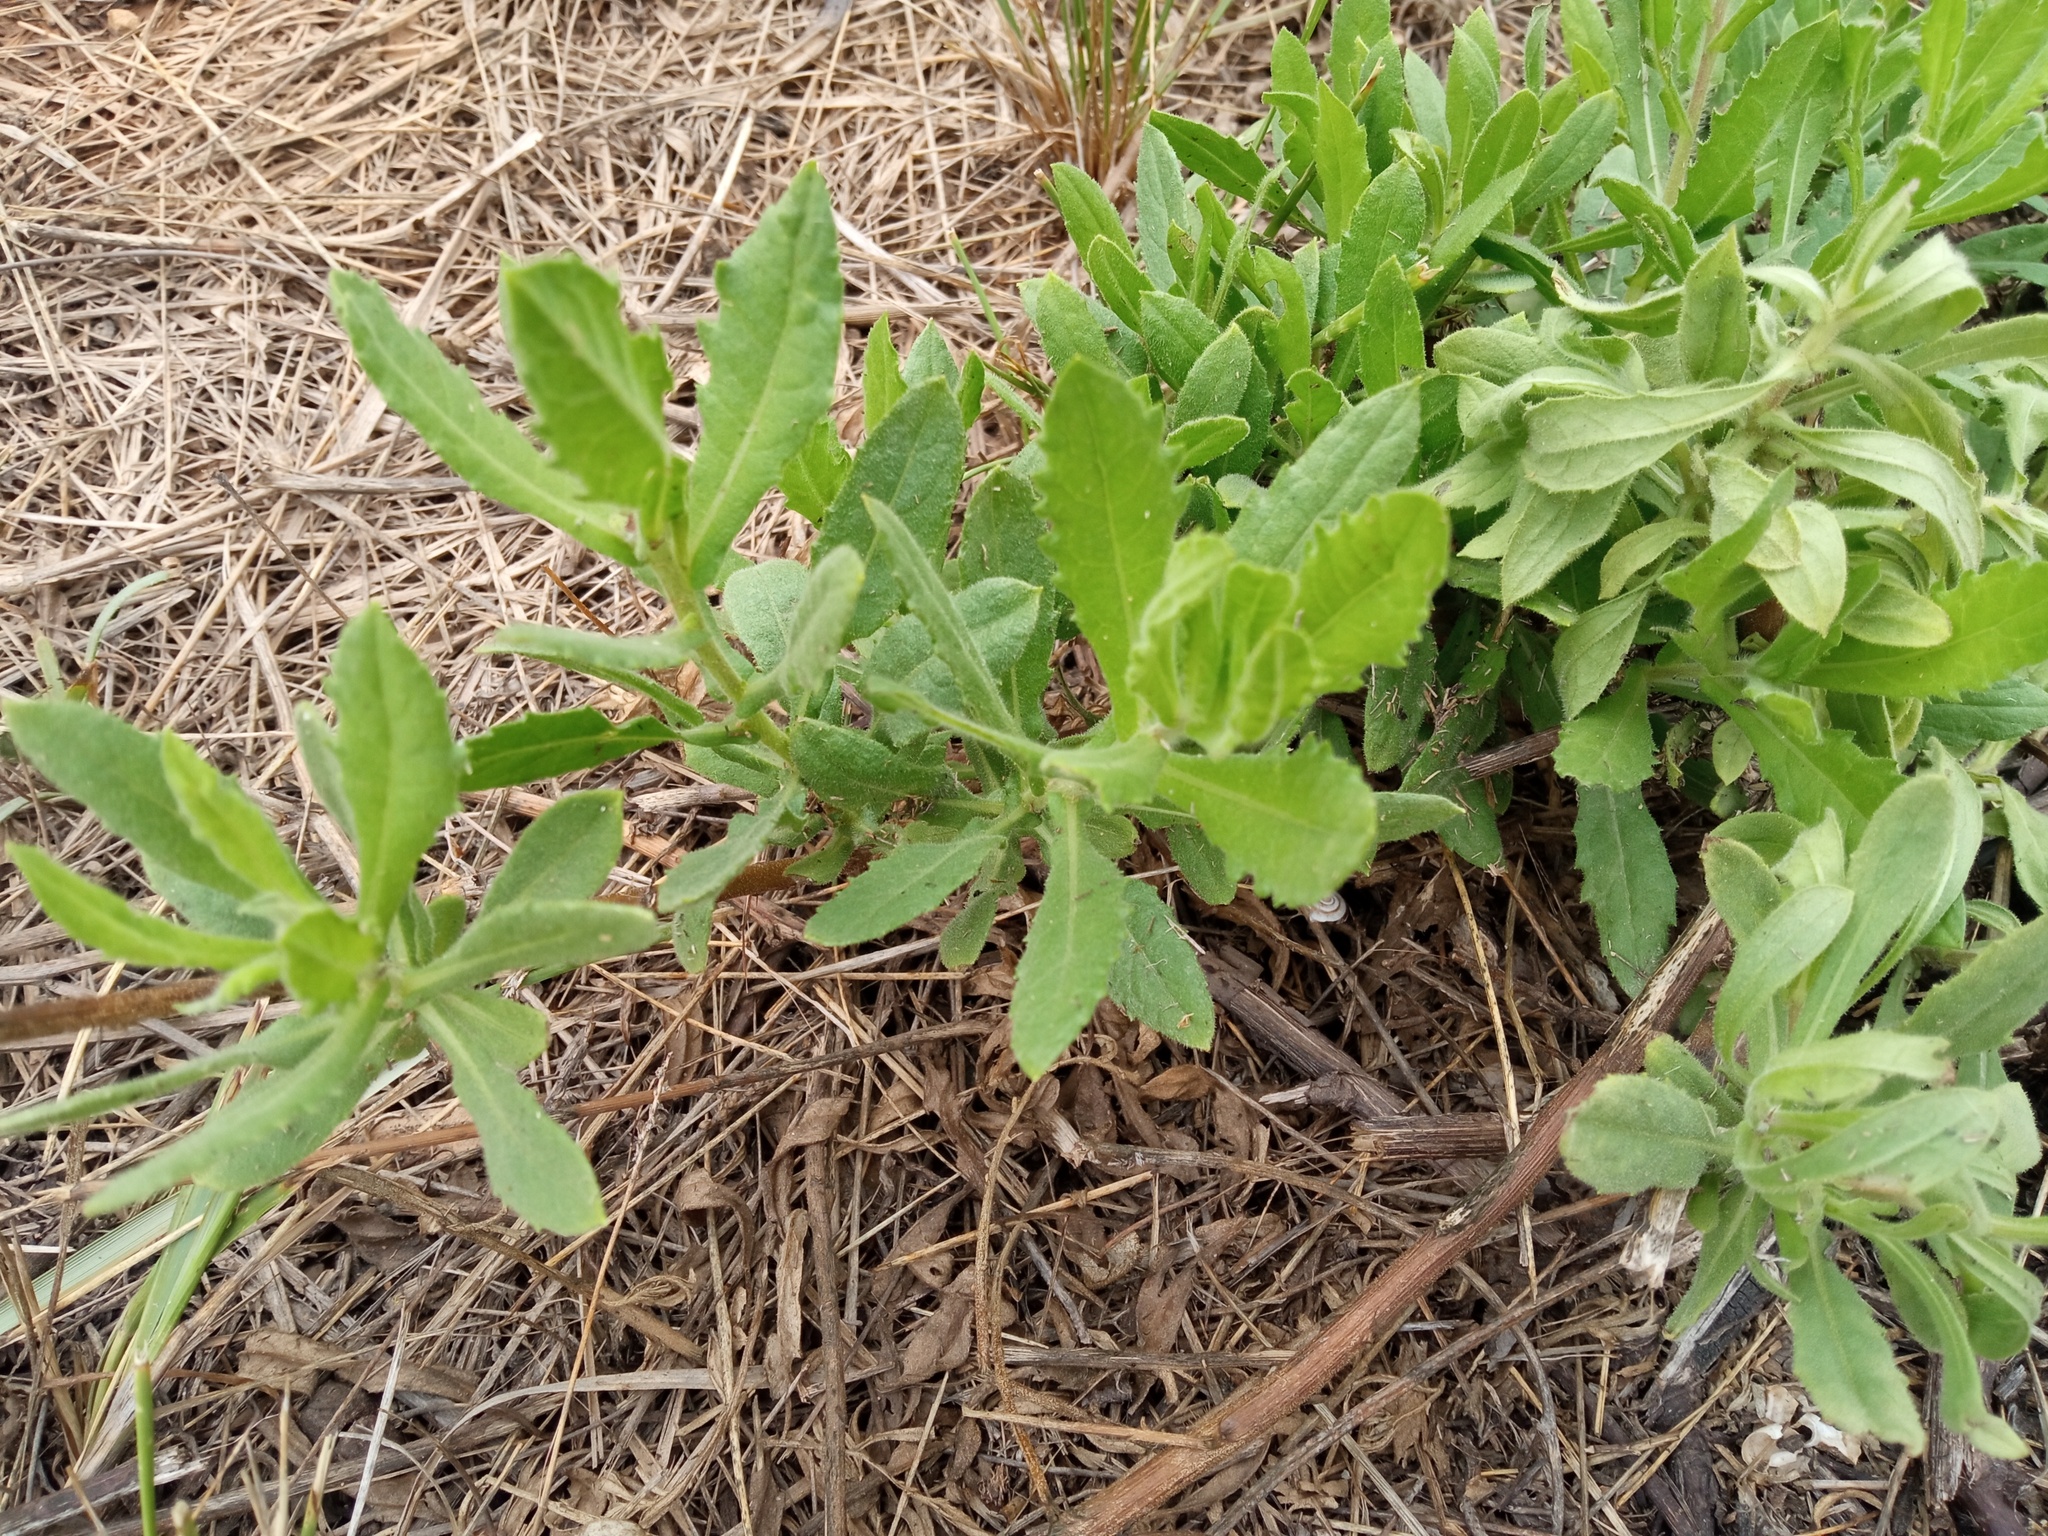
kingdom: Plantae
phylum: Tracheophyta
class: Magnoliopsida
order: Asterales
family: Asteraceae
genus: Dittrichia
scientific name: Dittrichia viscosa
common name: Woody fleabane
